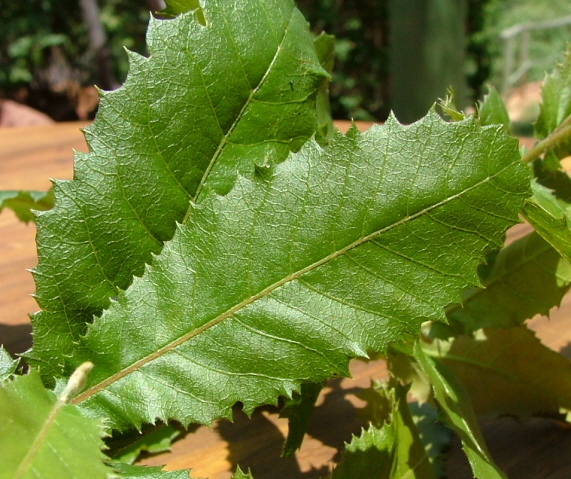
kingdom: Plantae
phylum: Tracheophyta
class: Magnoliopsida
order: Sapindales
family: Sapindaceae
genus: Pappea
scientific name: Pappea capensis
